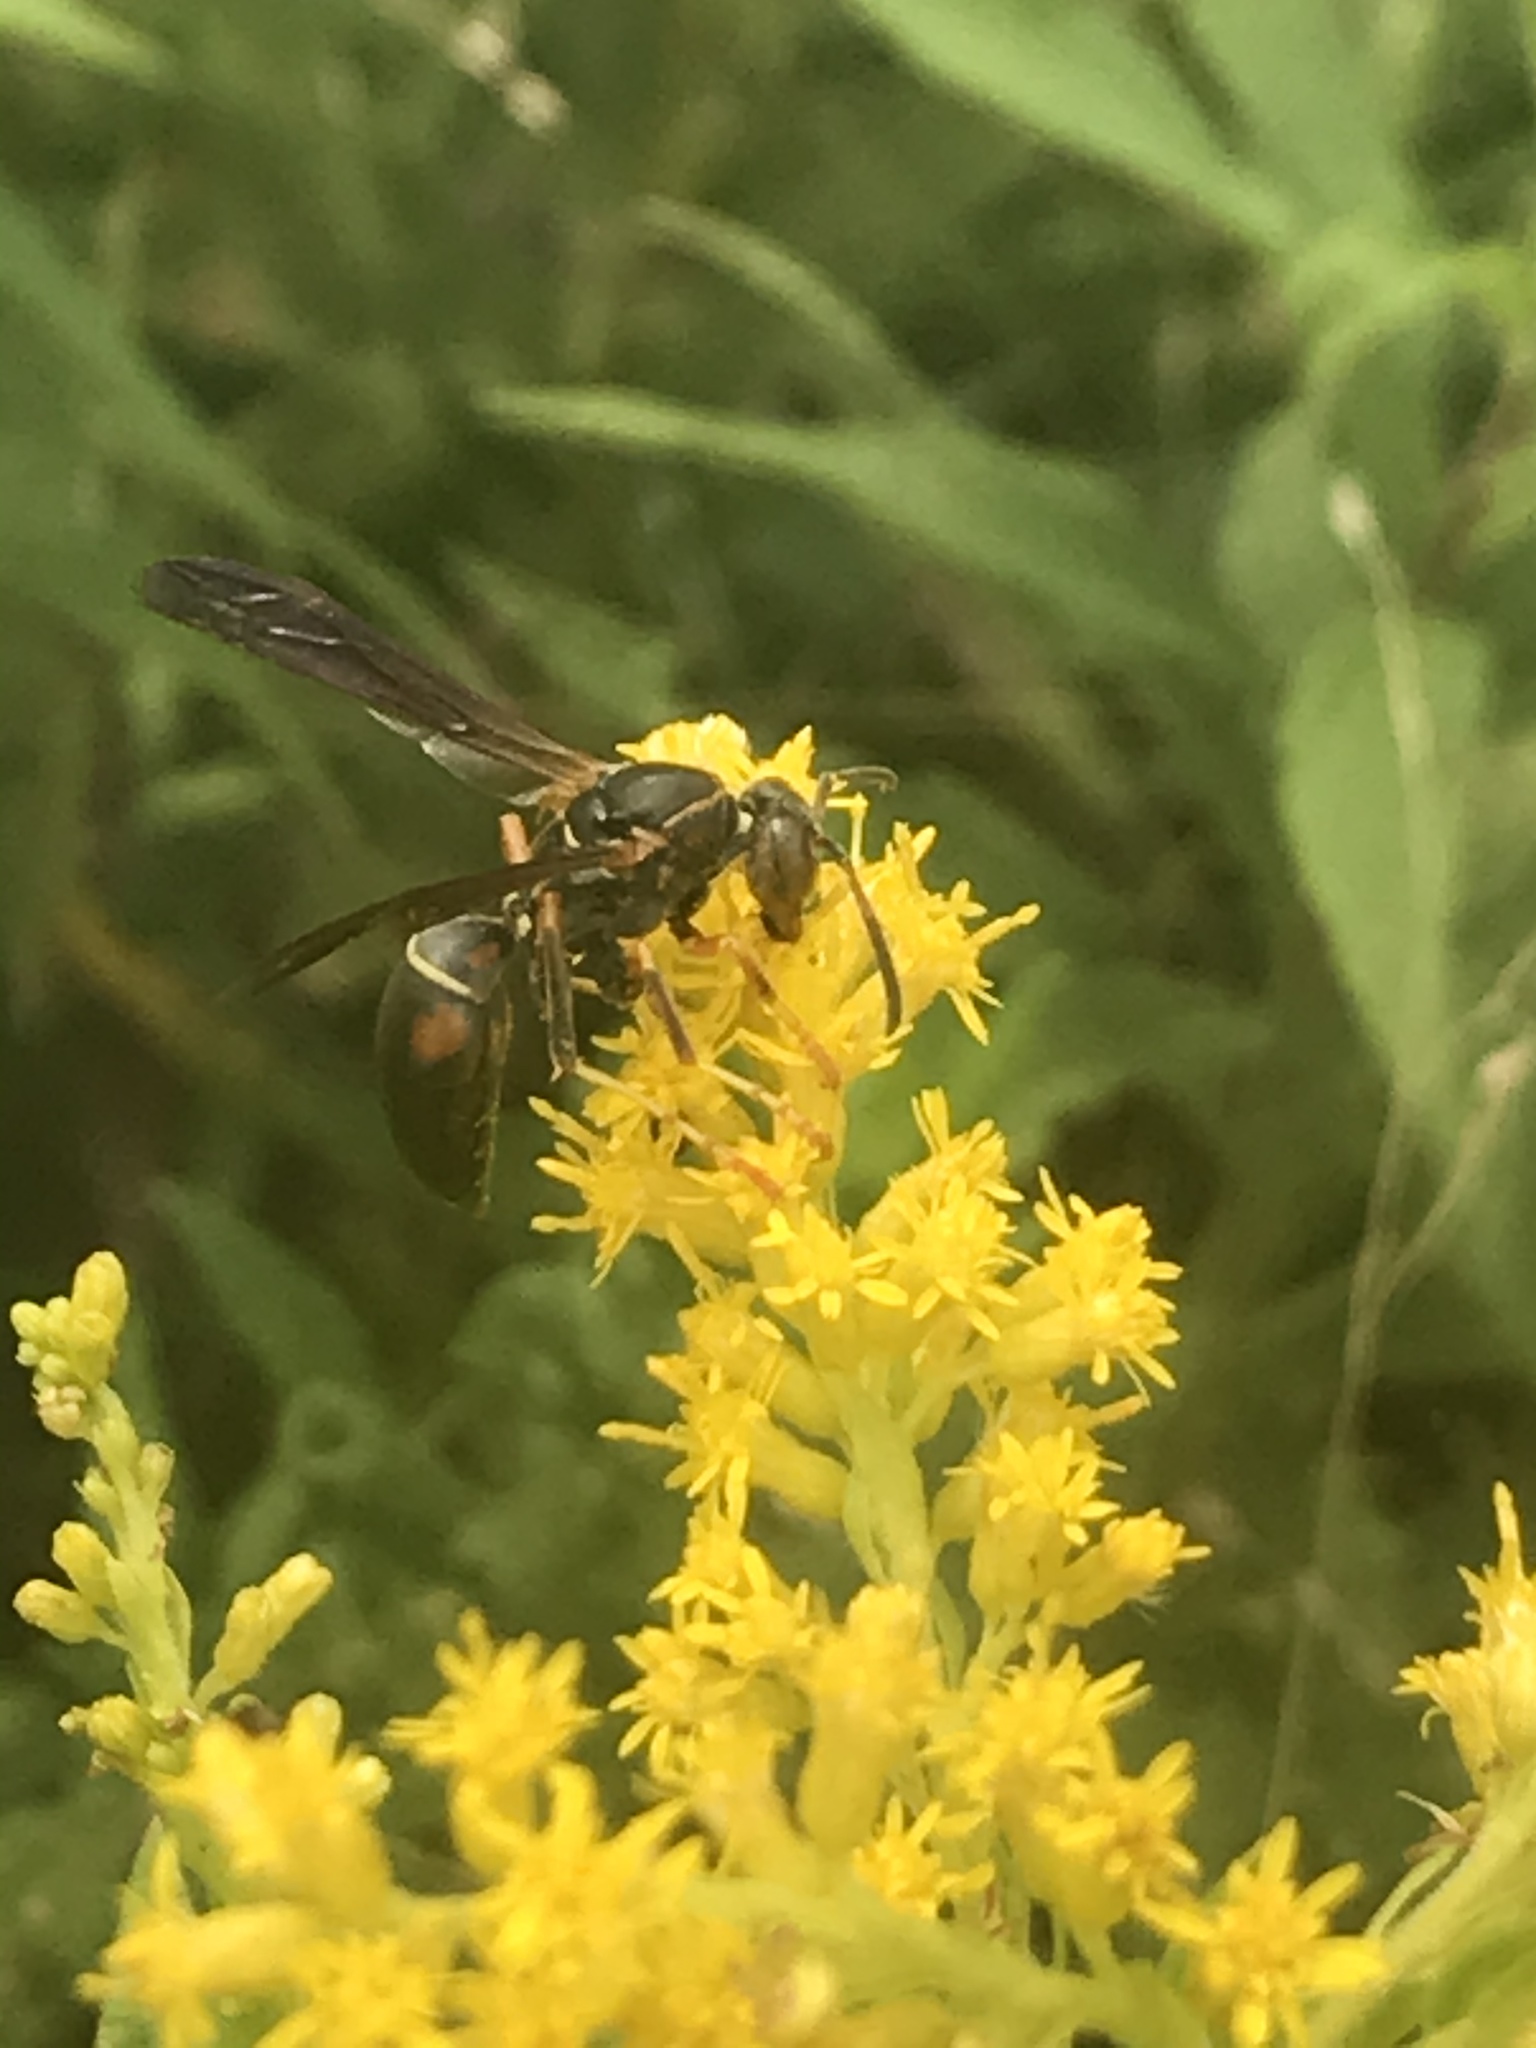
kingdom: Animalia
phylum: Arthropoda
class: Insecta
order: Hymenoptera
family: Eumenidae
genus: Polistes
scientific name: Polistes fuscatus
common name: Dark paper wasp
